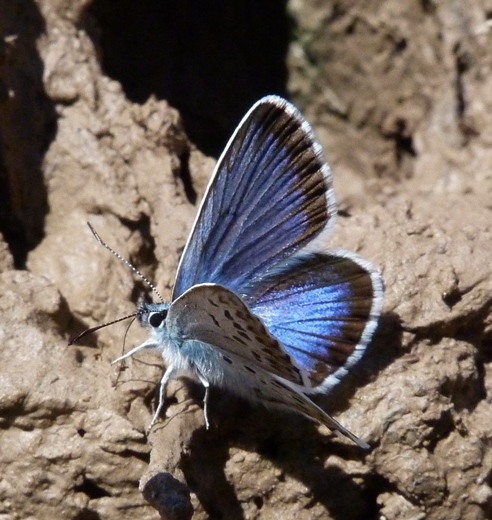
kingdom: Animalia
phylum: Arthropoda
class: Insecta
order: Lepidoptera
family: Lycaenidae
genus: Plebejus
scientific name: Plebejus argus
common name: Silver-studded blue
